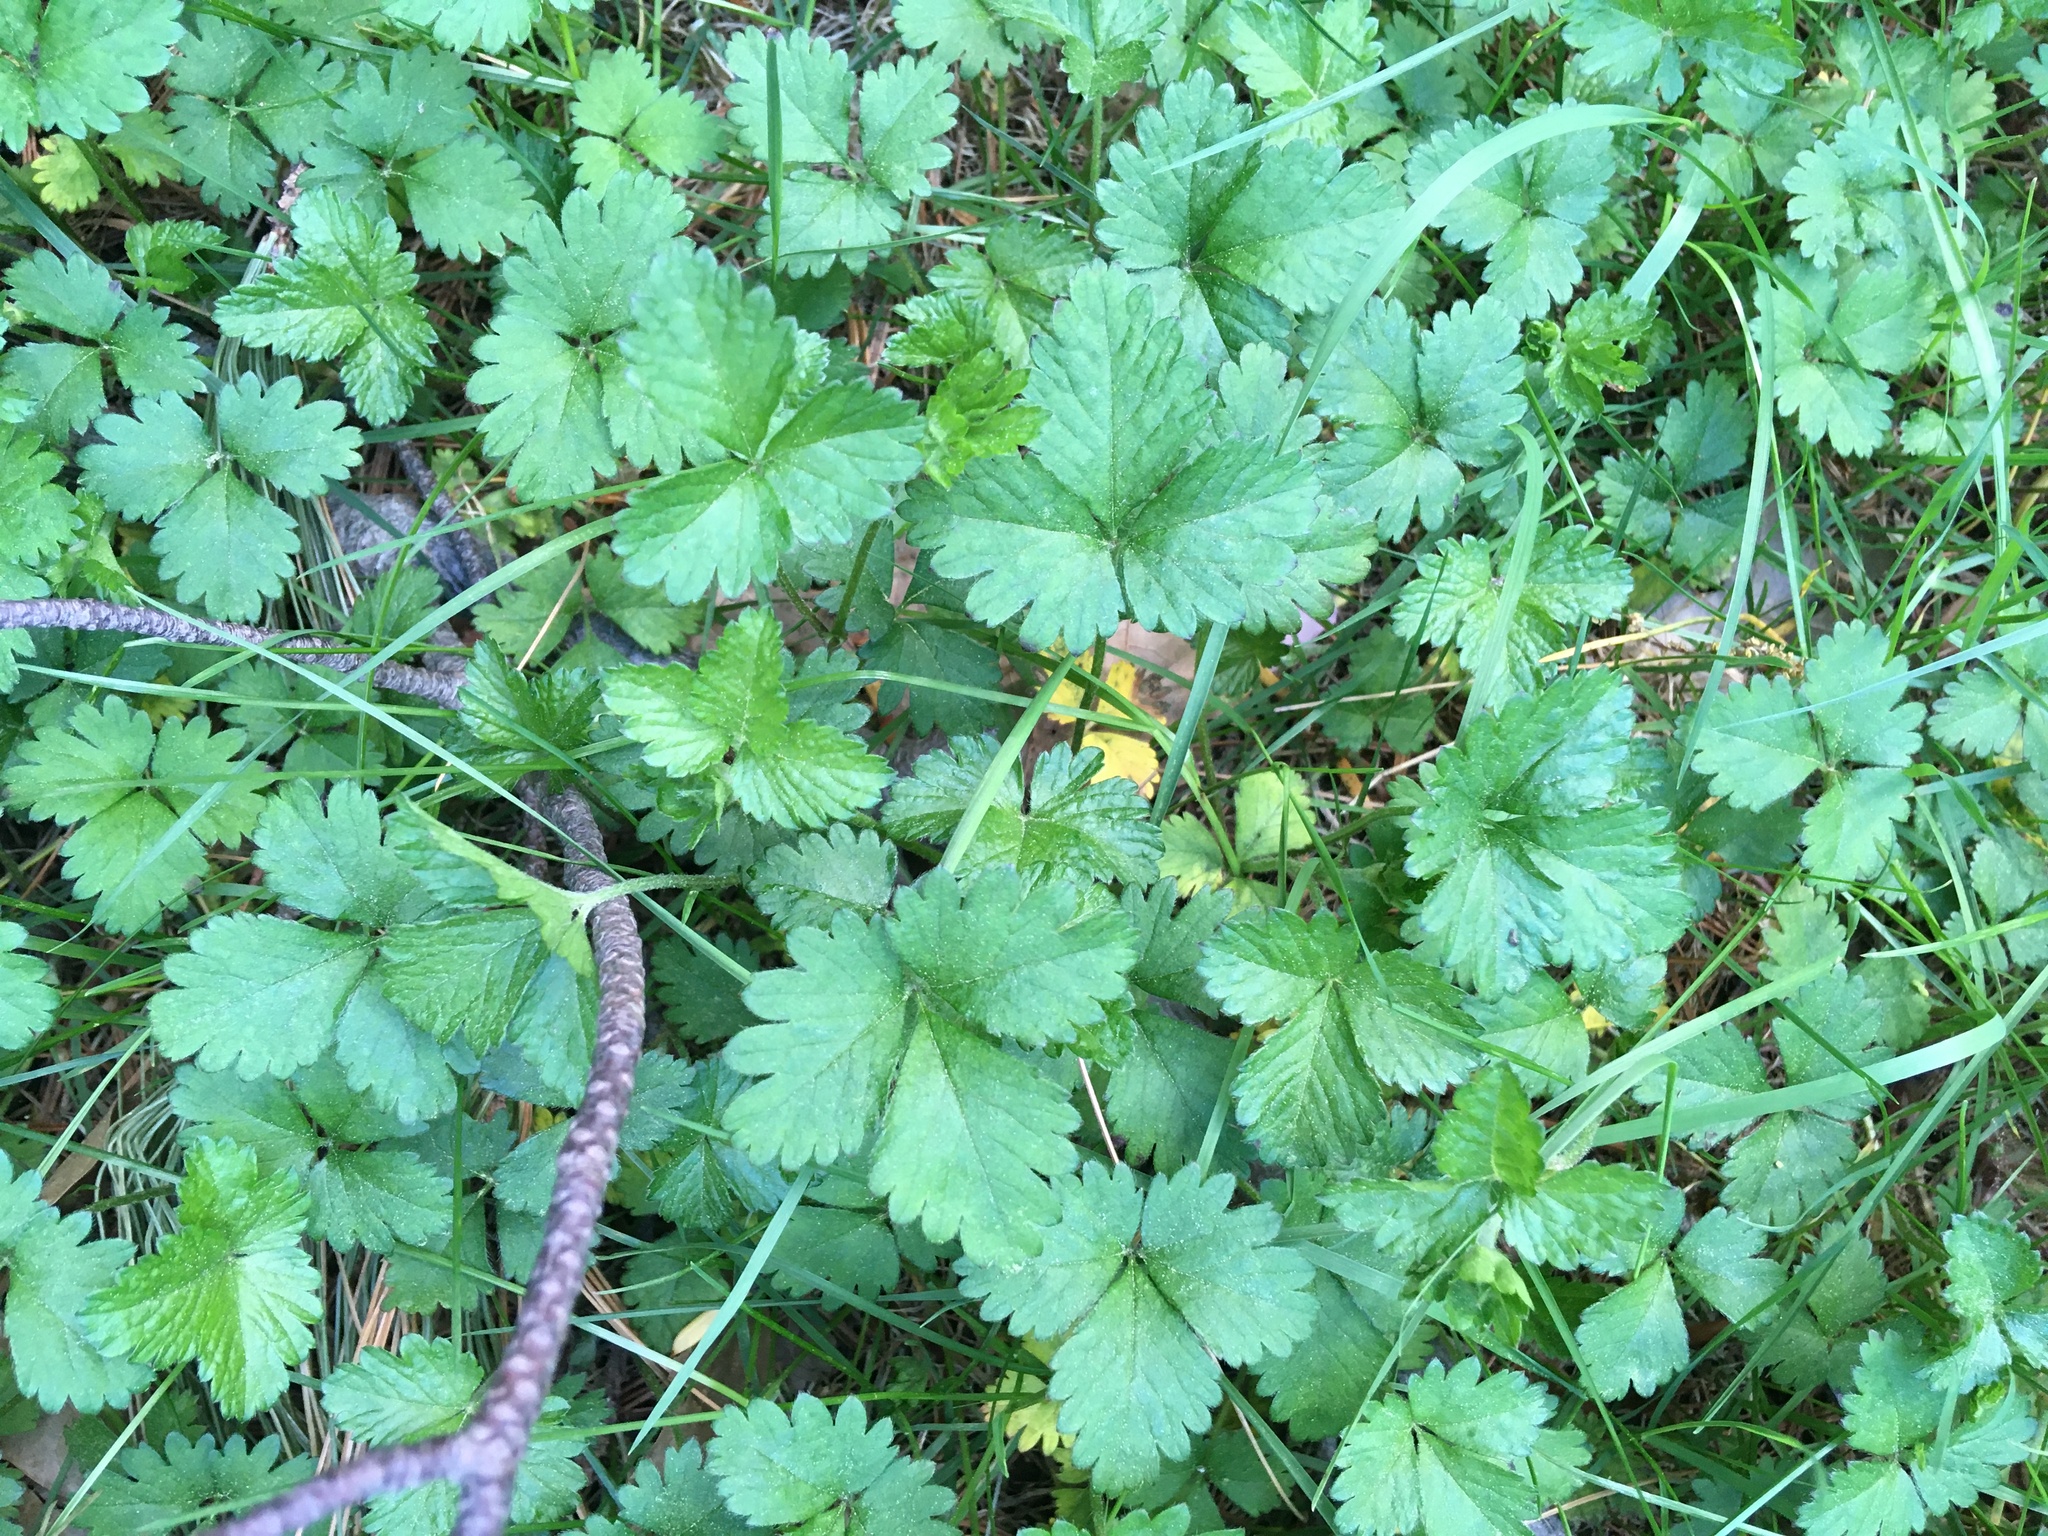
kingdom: Plantae
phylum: Tracheophyta
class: Magnoliopsida
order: Rosales
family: Rosaceae
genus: Potentilla
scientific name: Potentilla indica
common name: Yellow-flowered strawberry
